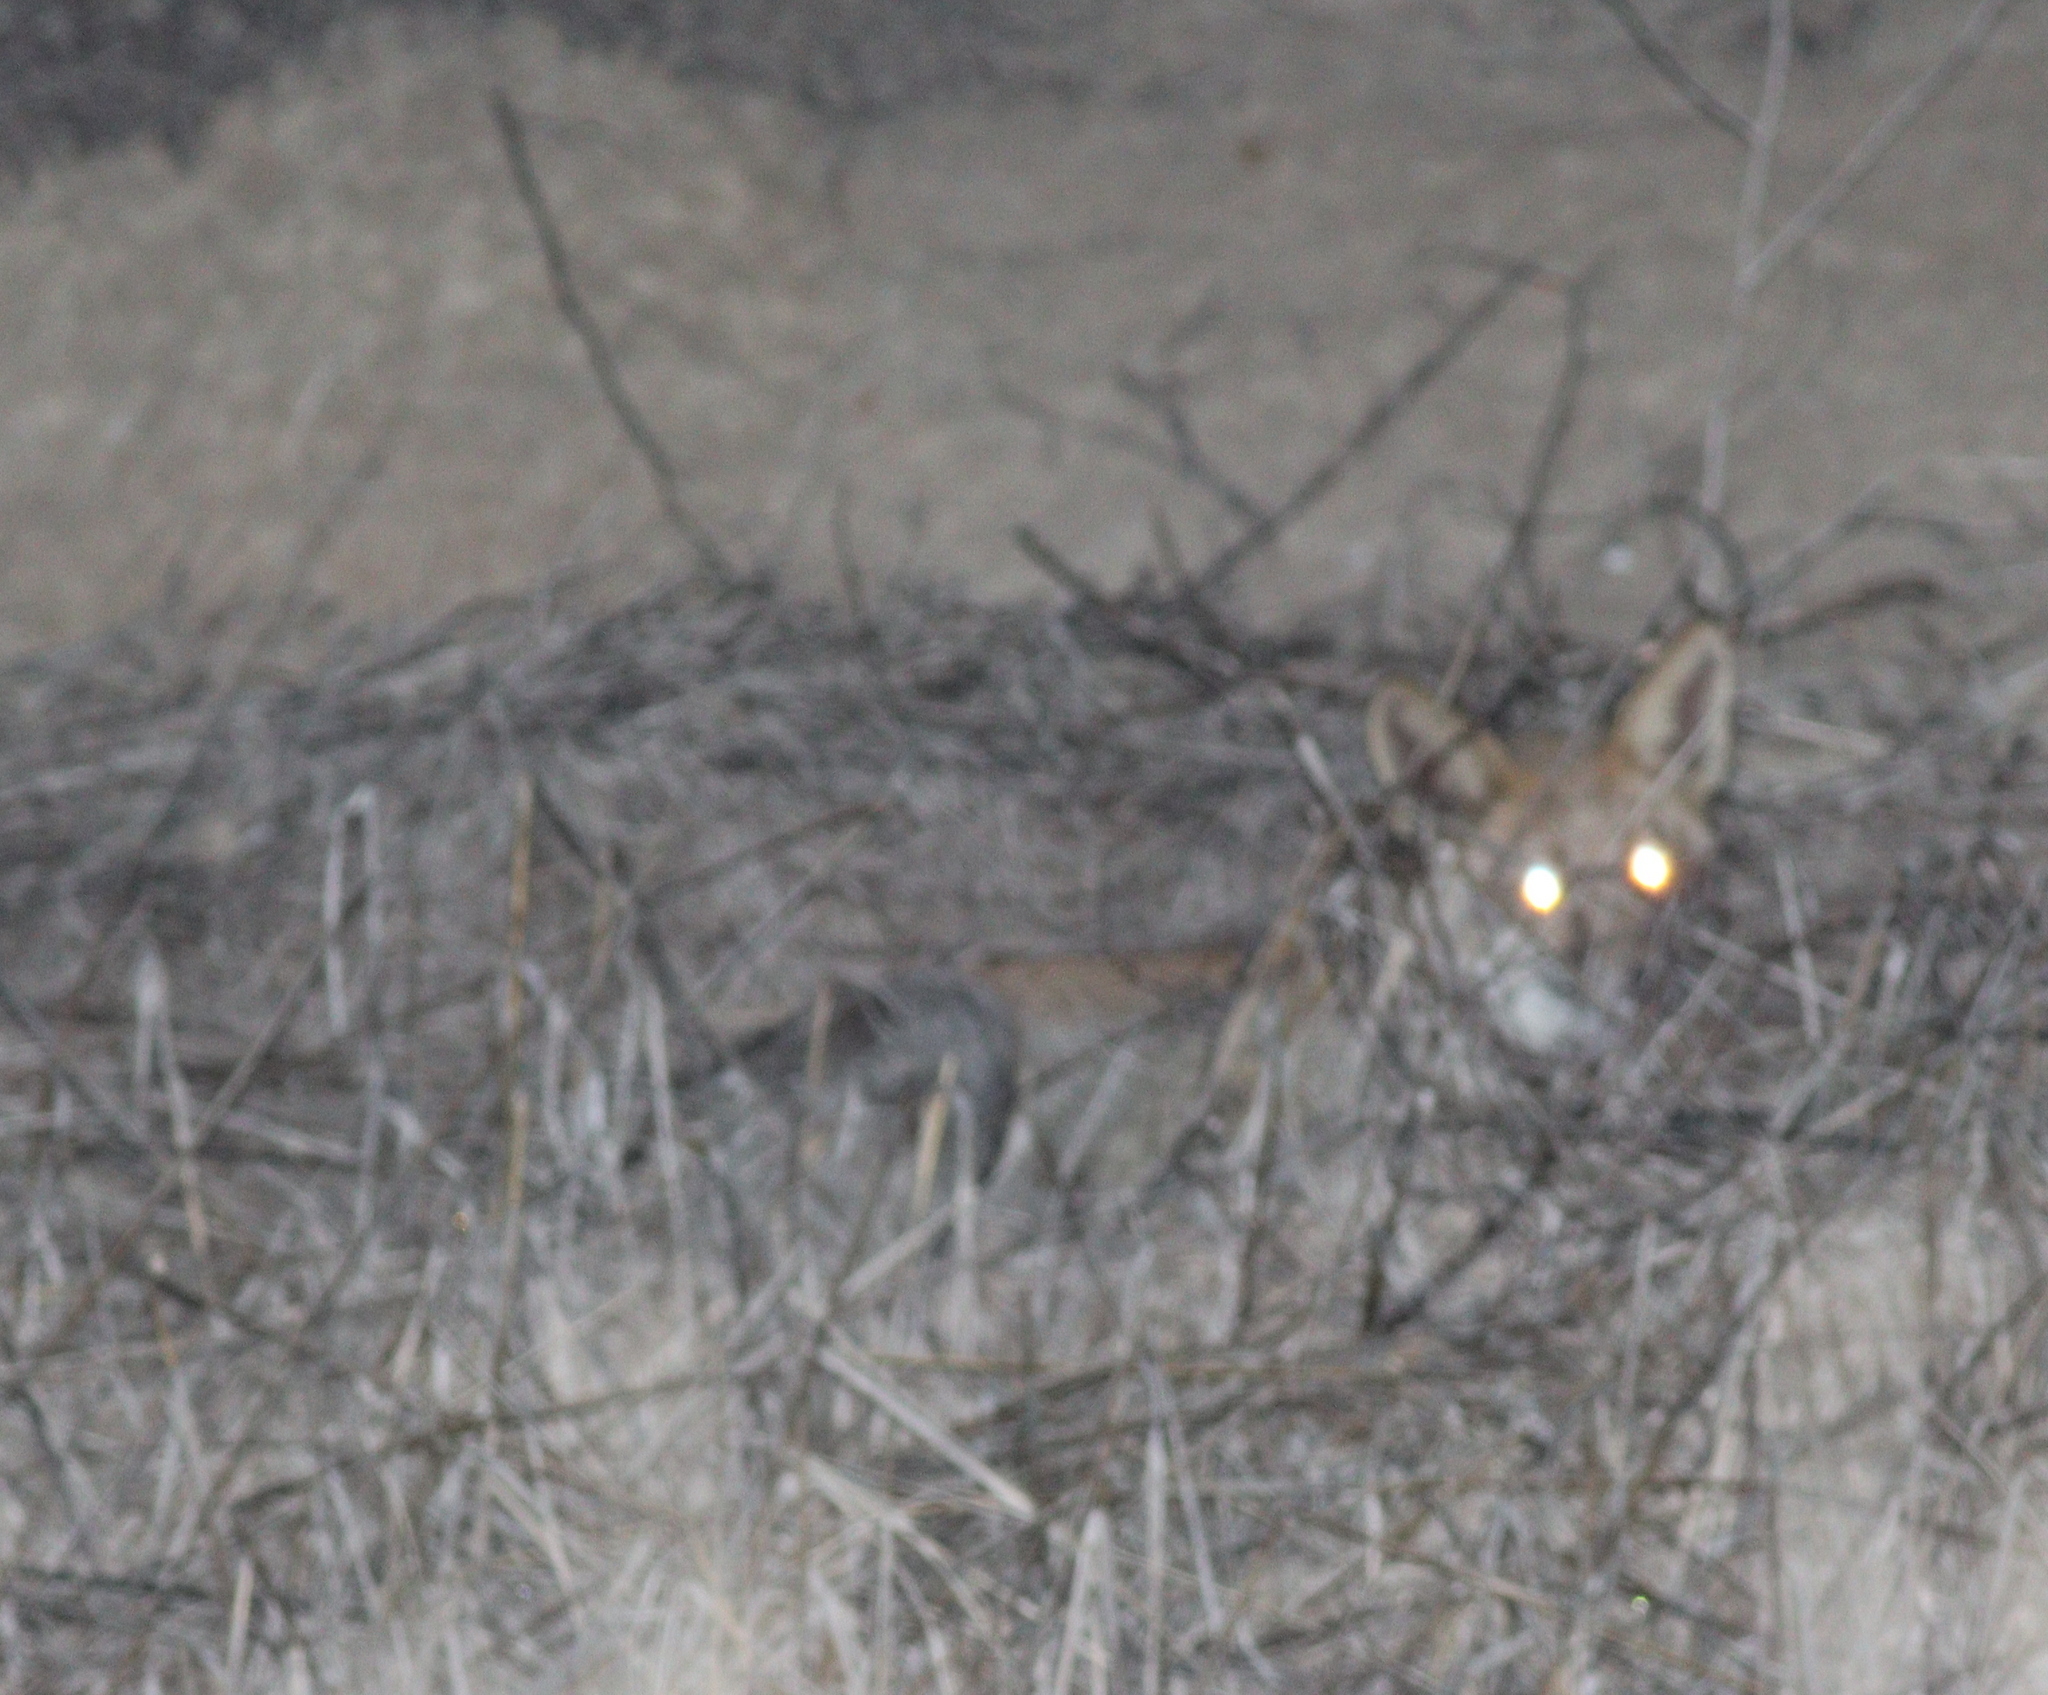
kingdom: Animalia
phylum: Chordata
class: Mammalia
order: Carnivora
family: Canidae
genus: Vulpes
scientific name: Vulpes vulpes
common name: Red fox
